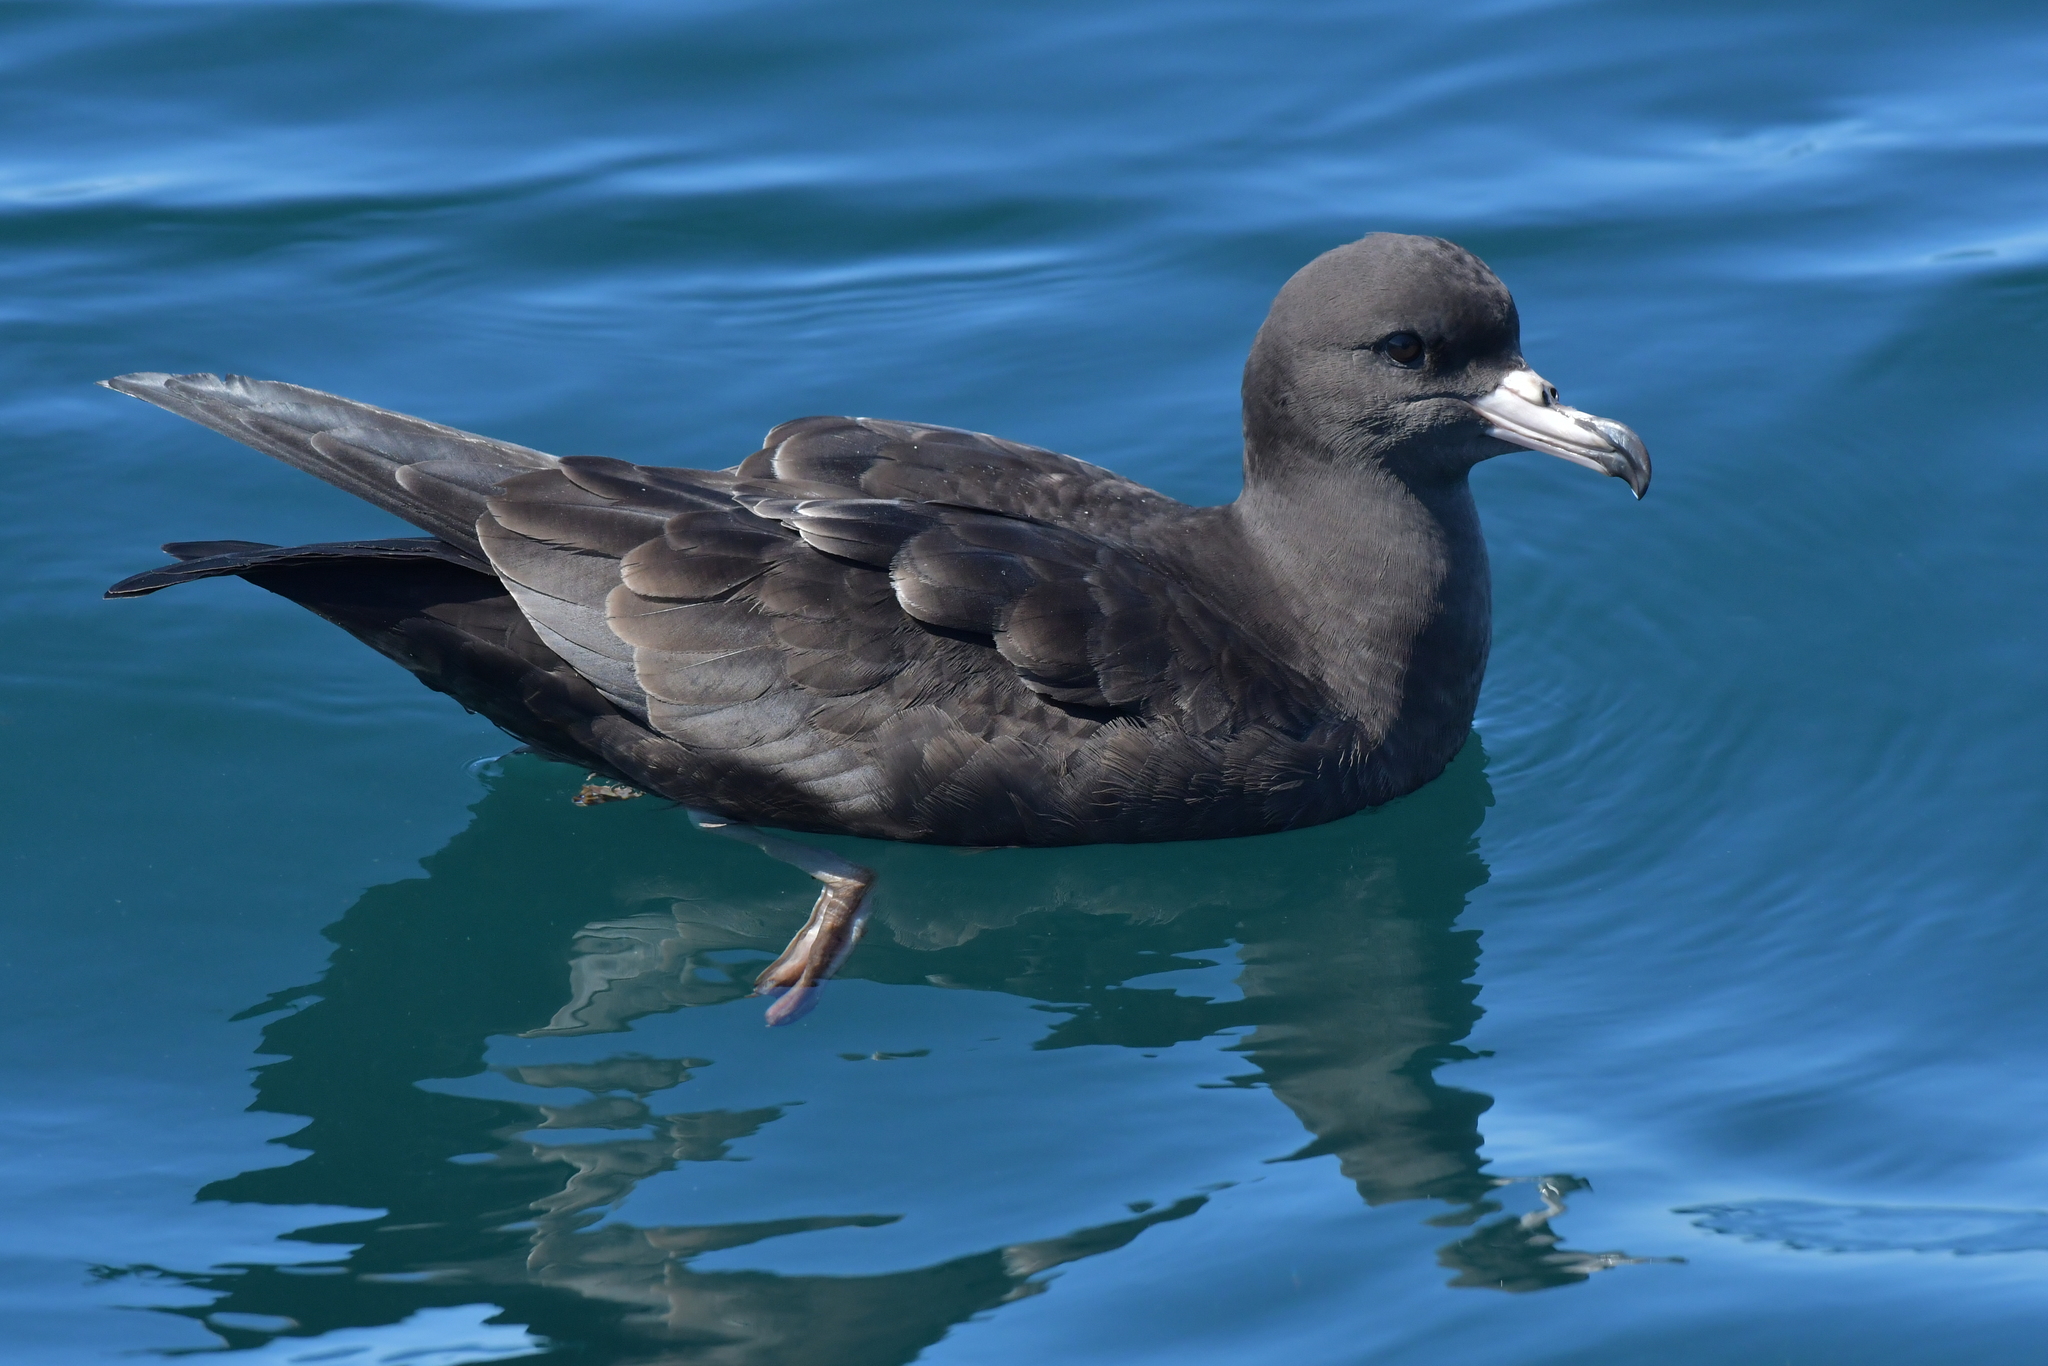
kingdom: Animalia
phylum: Chordata
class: Aves
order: Procellariiformes
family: Procellariidae
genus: Puffinus
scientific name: Puffinus carneipes
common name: Flesh-footed shearwater
